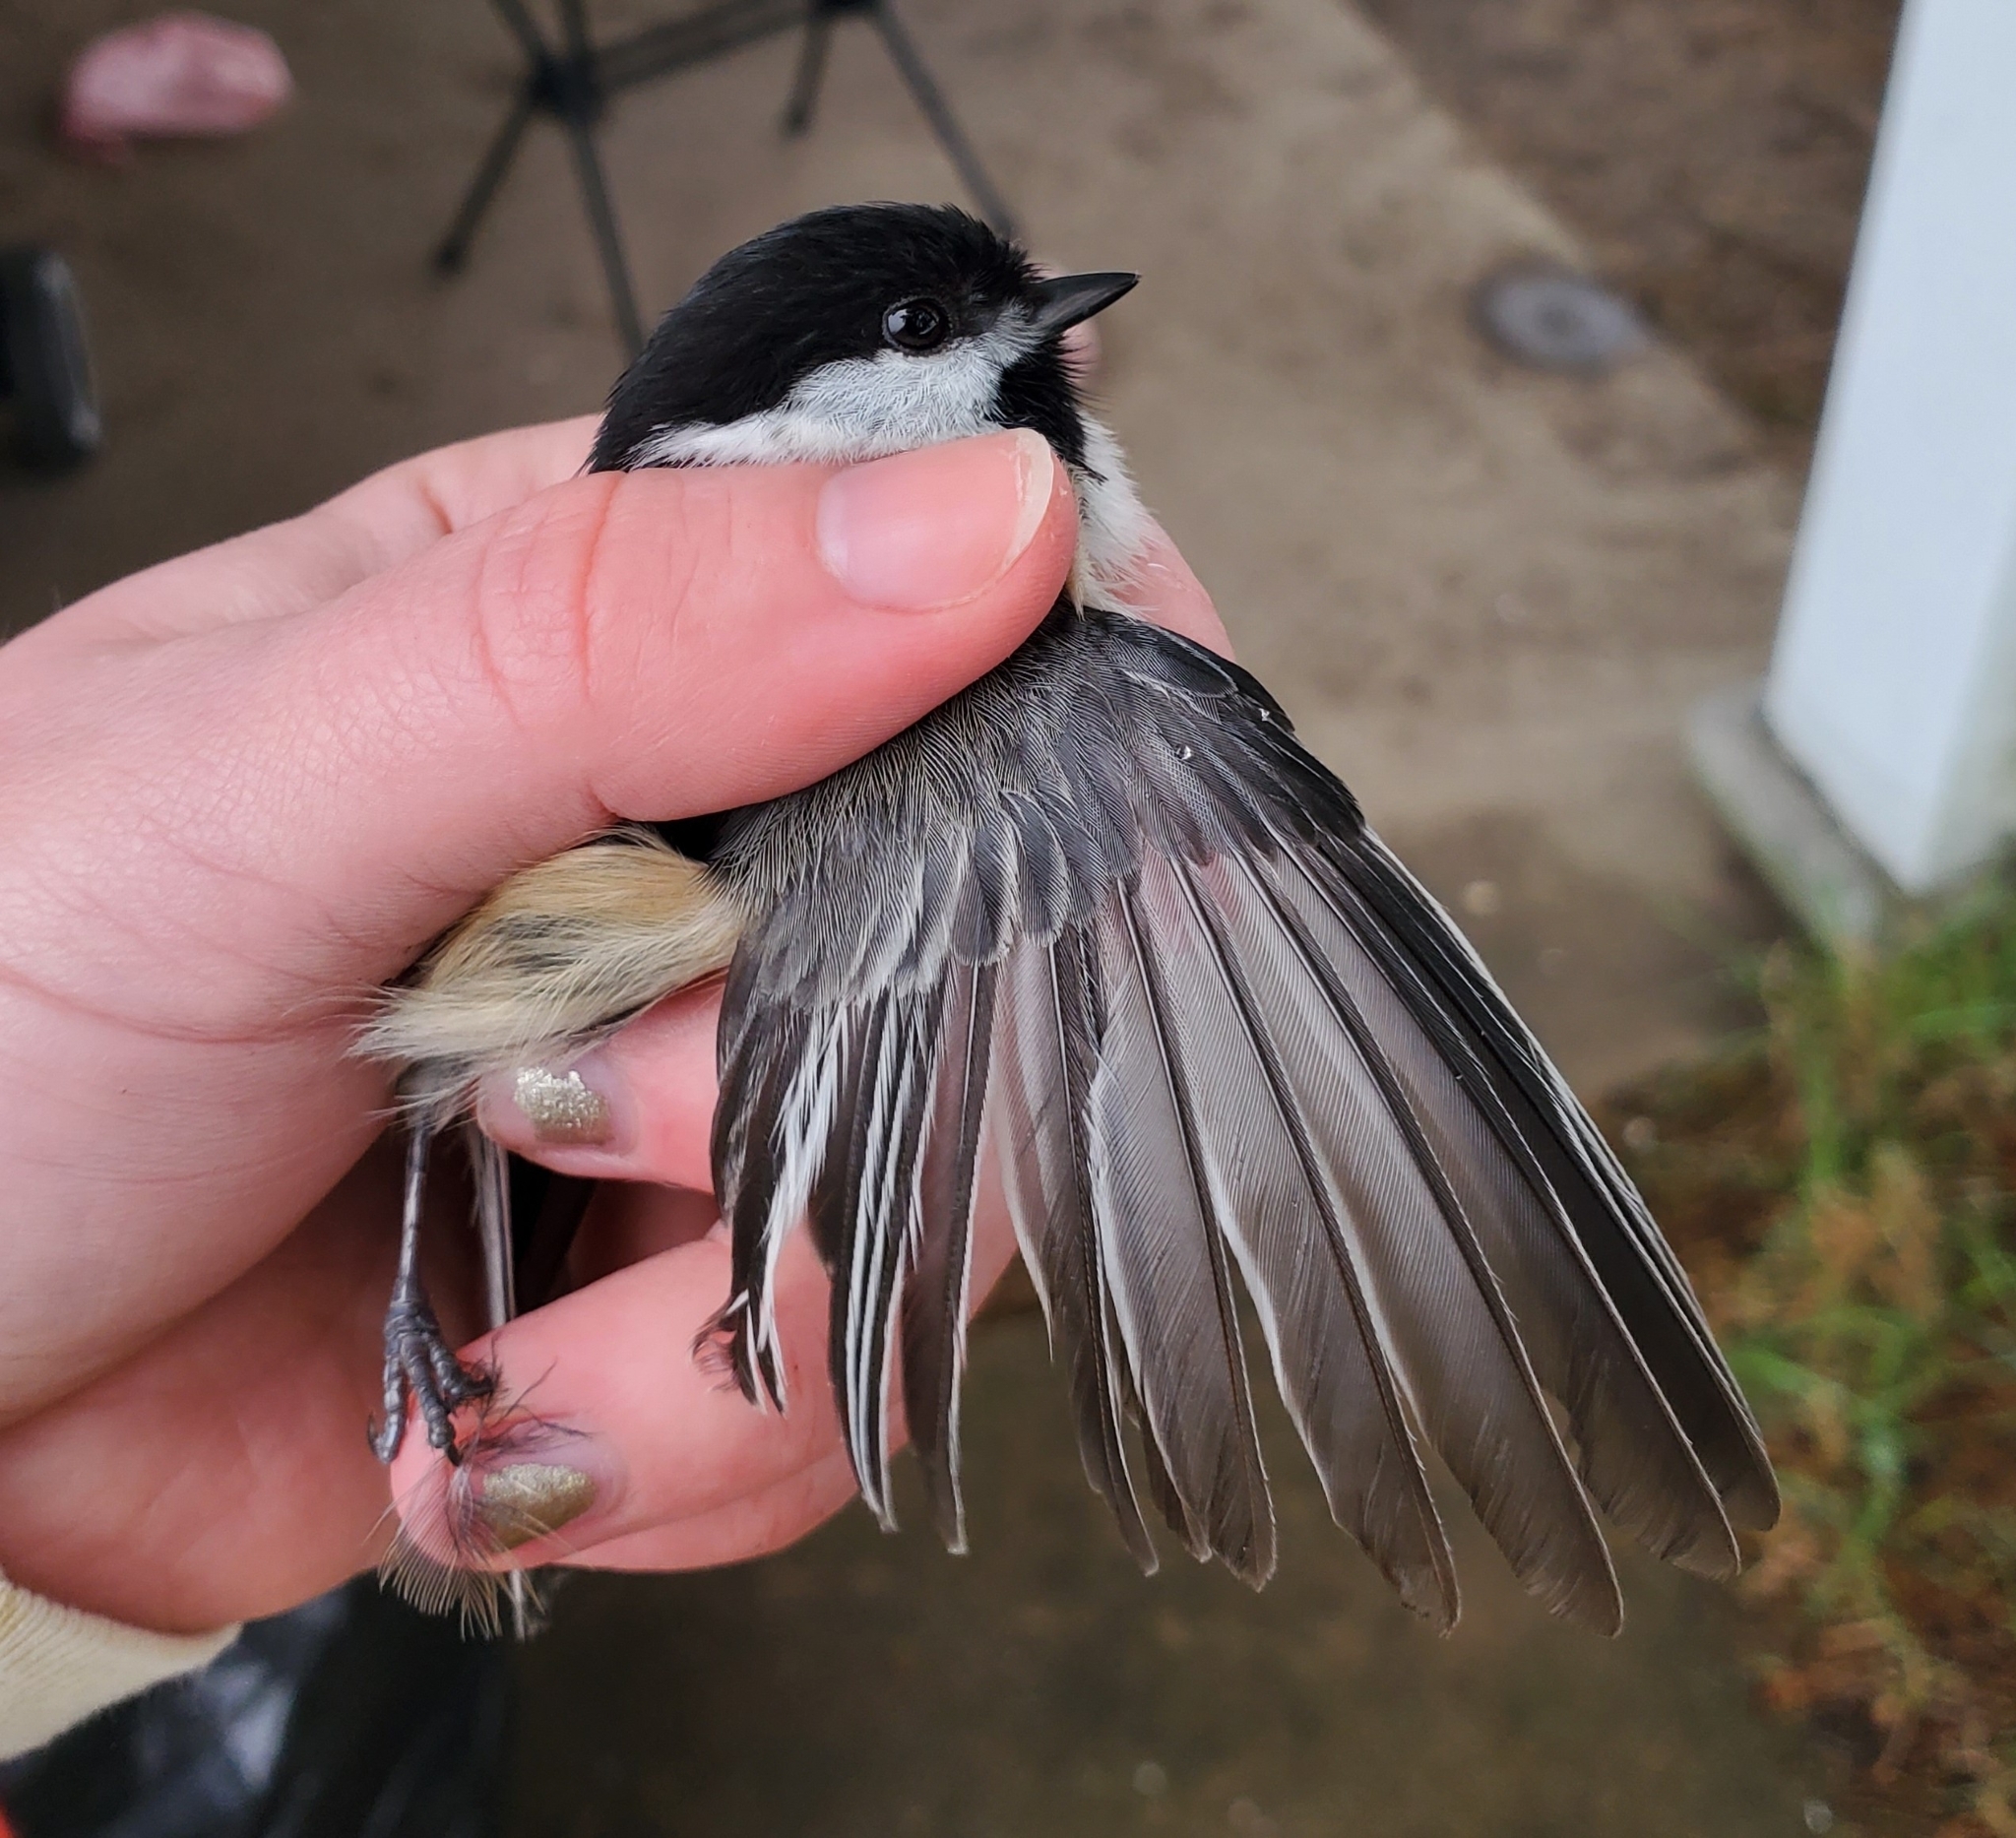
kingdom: Animalia
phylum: Chordata
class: Aves
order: Passeriformes
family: Paridae
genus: Poecile
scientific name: Poecile atricapillus
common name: Black-capped chickadee
